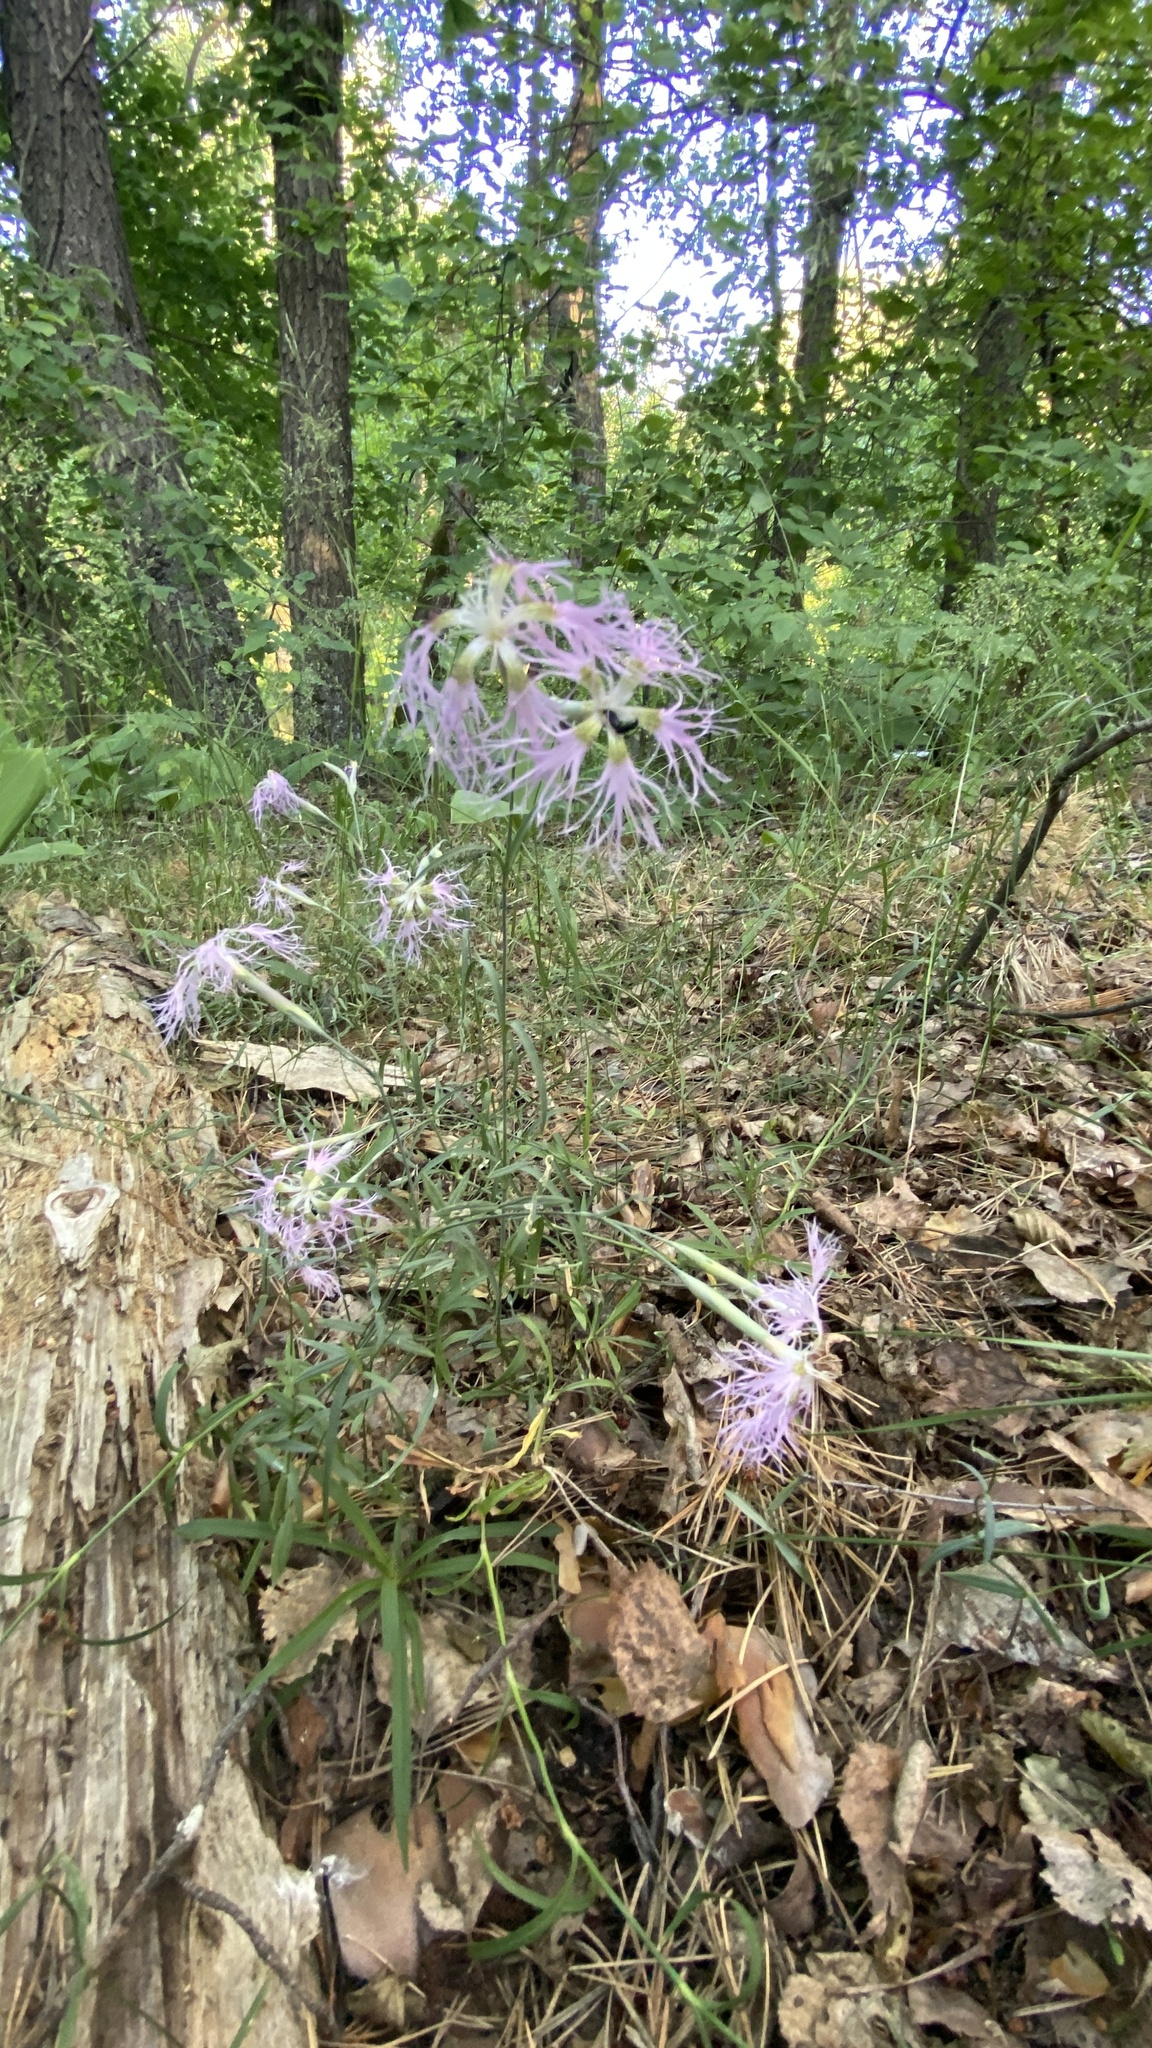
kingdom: Plantae
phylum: Tracheophyta
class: Magnoliopsida
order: Caryophyllales
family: Caryophyllaceae
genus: Dianthus
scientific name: Dianthus superbus
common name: Fringed pink
